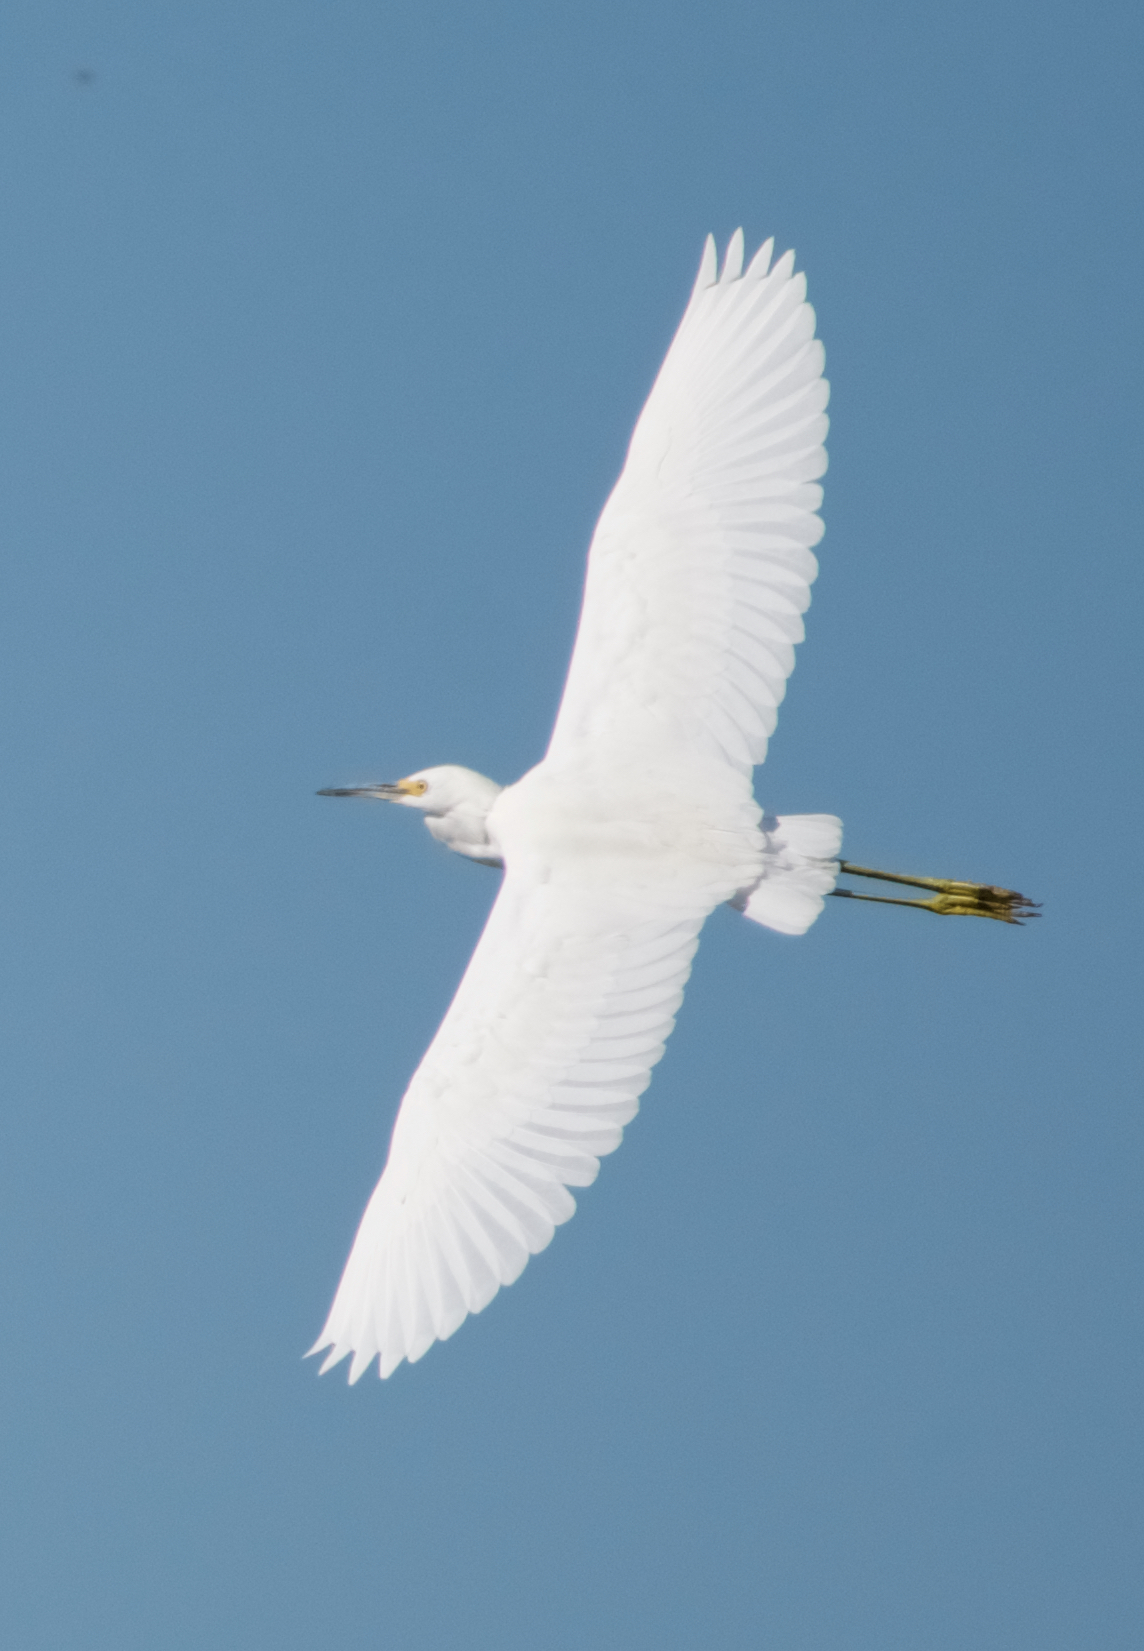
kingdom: Animalia
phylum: Chordata
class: Aves
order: Pelecaniformes
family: Ardeidae
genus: Egretta
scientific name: Egretta thula
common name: Snowy egret
